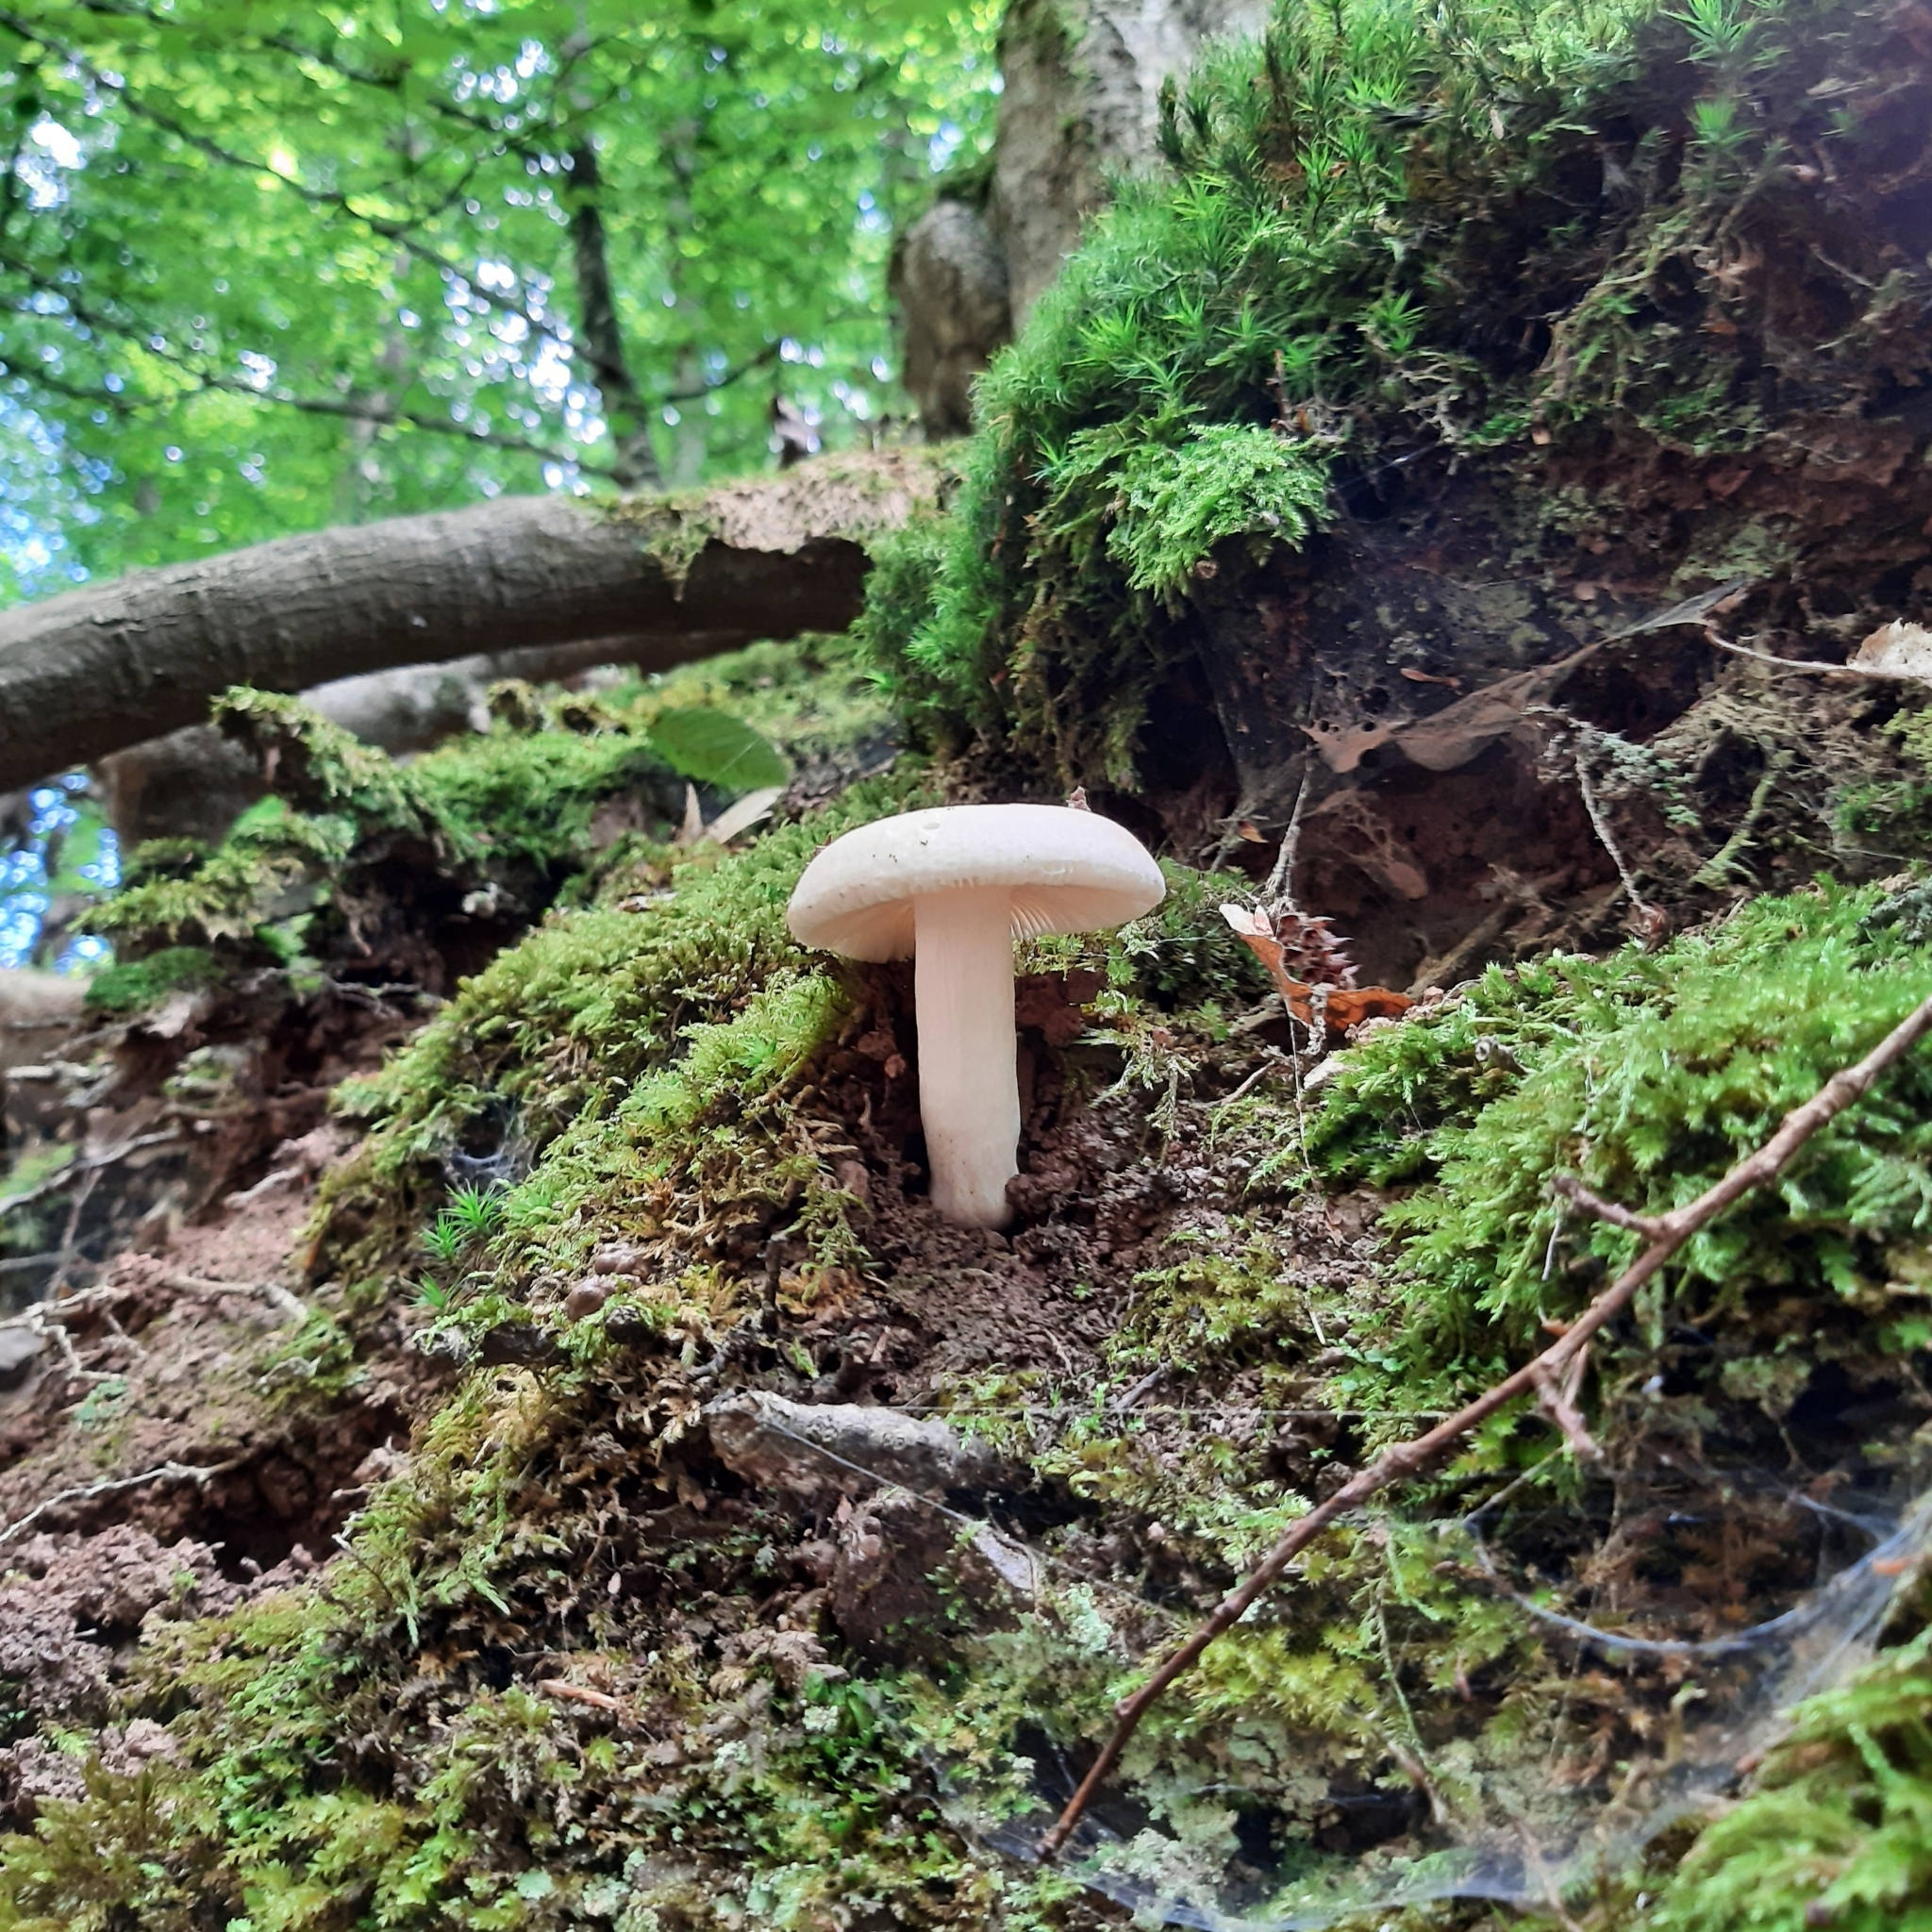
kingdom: Fungi
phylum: Basidiomycota
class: Agaricomycetes
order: Russulales
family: Russulaceae
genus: Russula
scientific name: Russula
